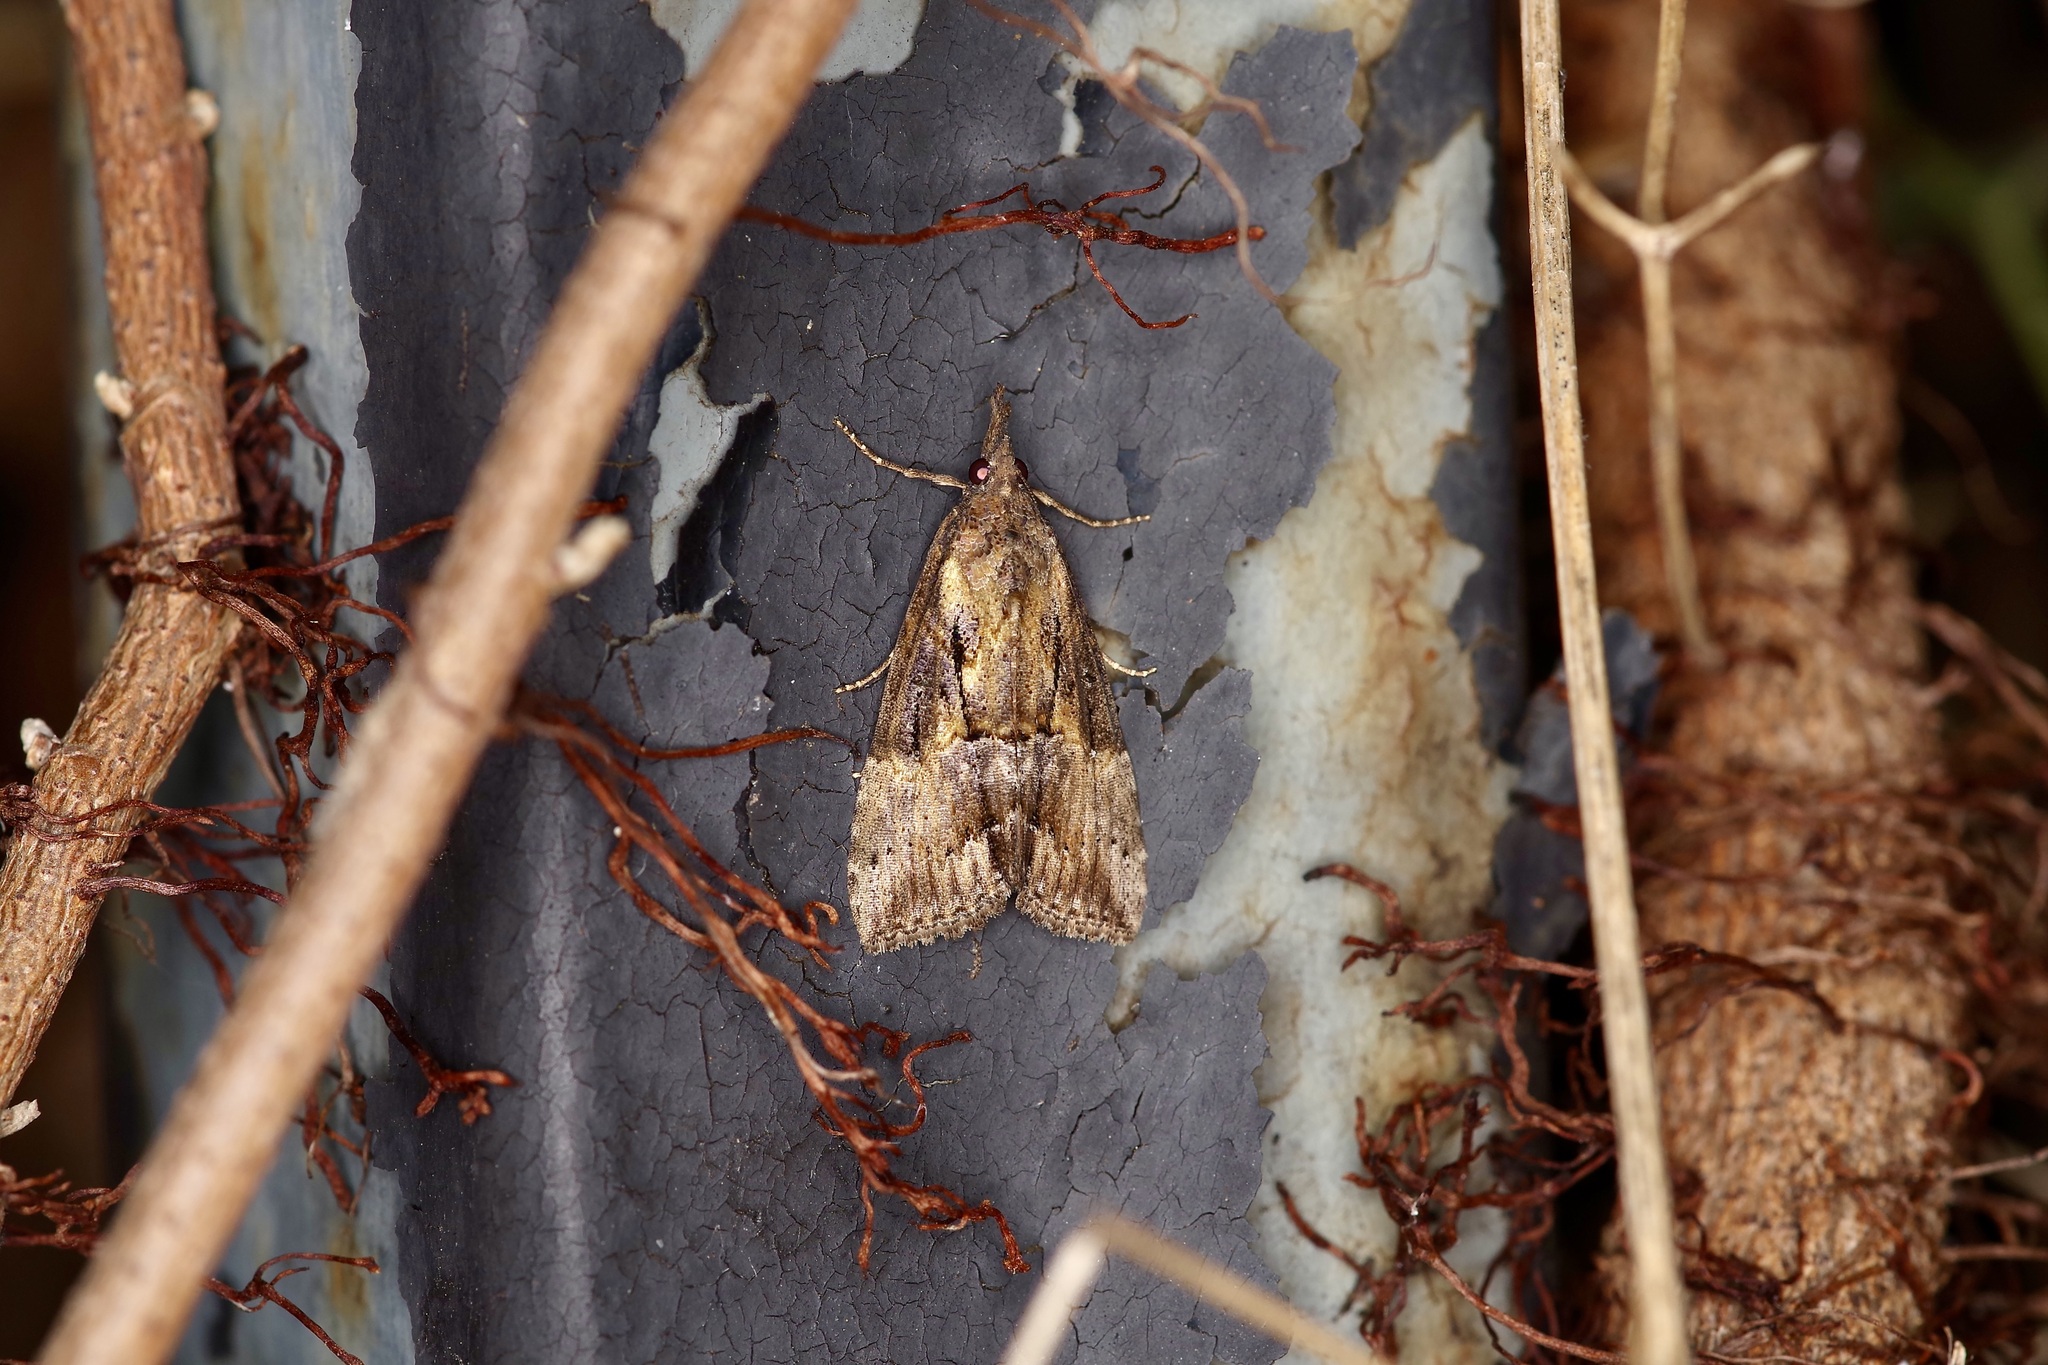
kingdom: Animalia
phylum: Arthropoda
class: Insecta
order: Lepidoptera
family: Erebidae
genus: Hypena
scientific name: Hypena scabra
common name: Green cloverworm
